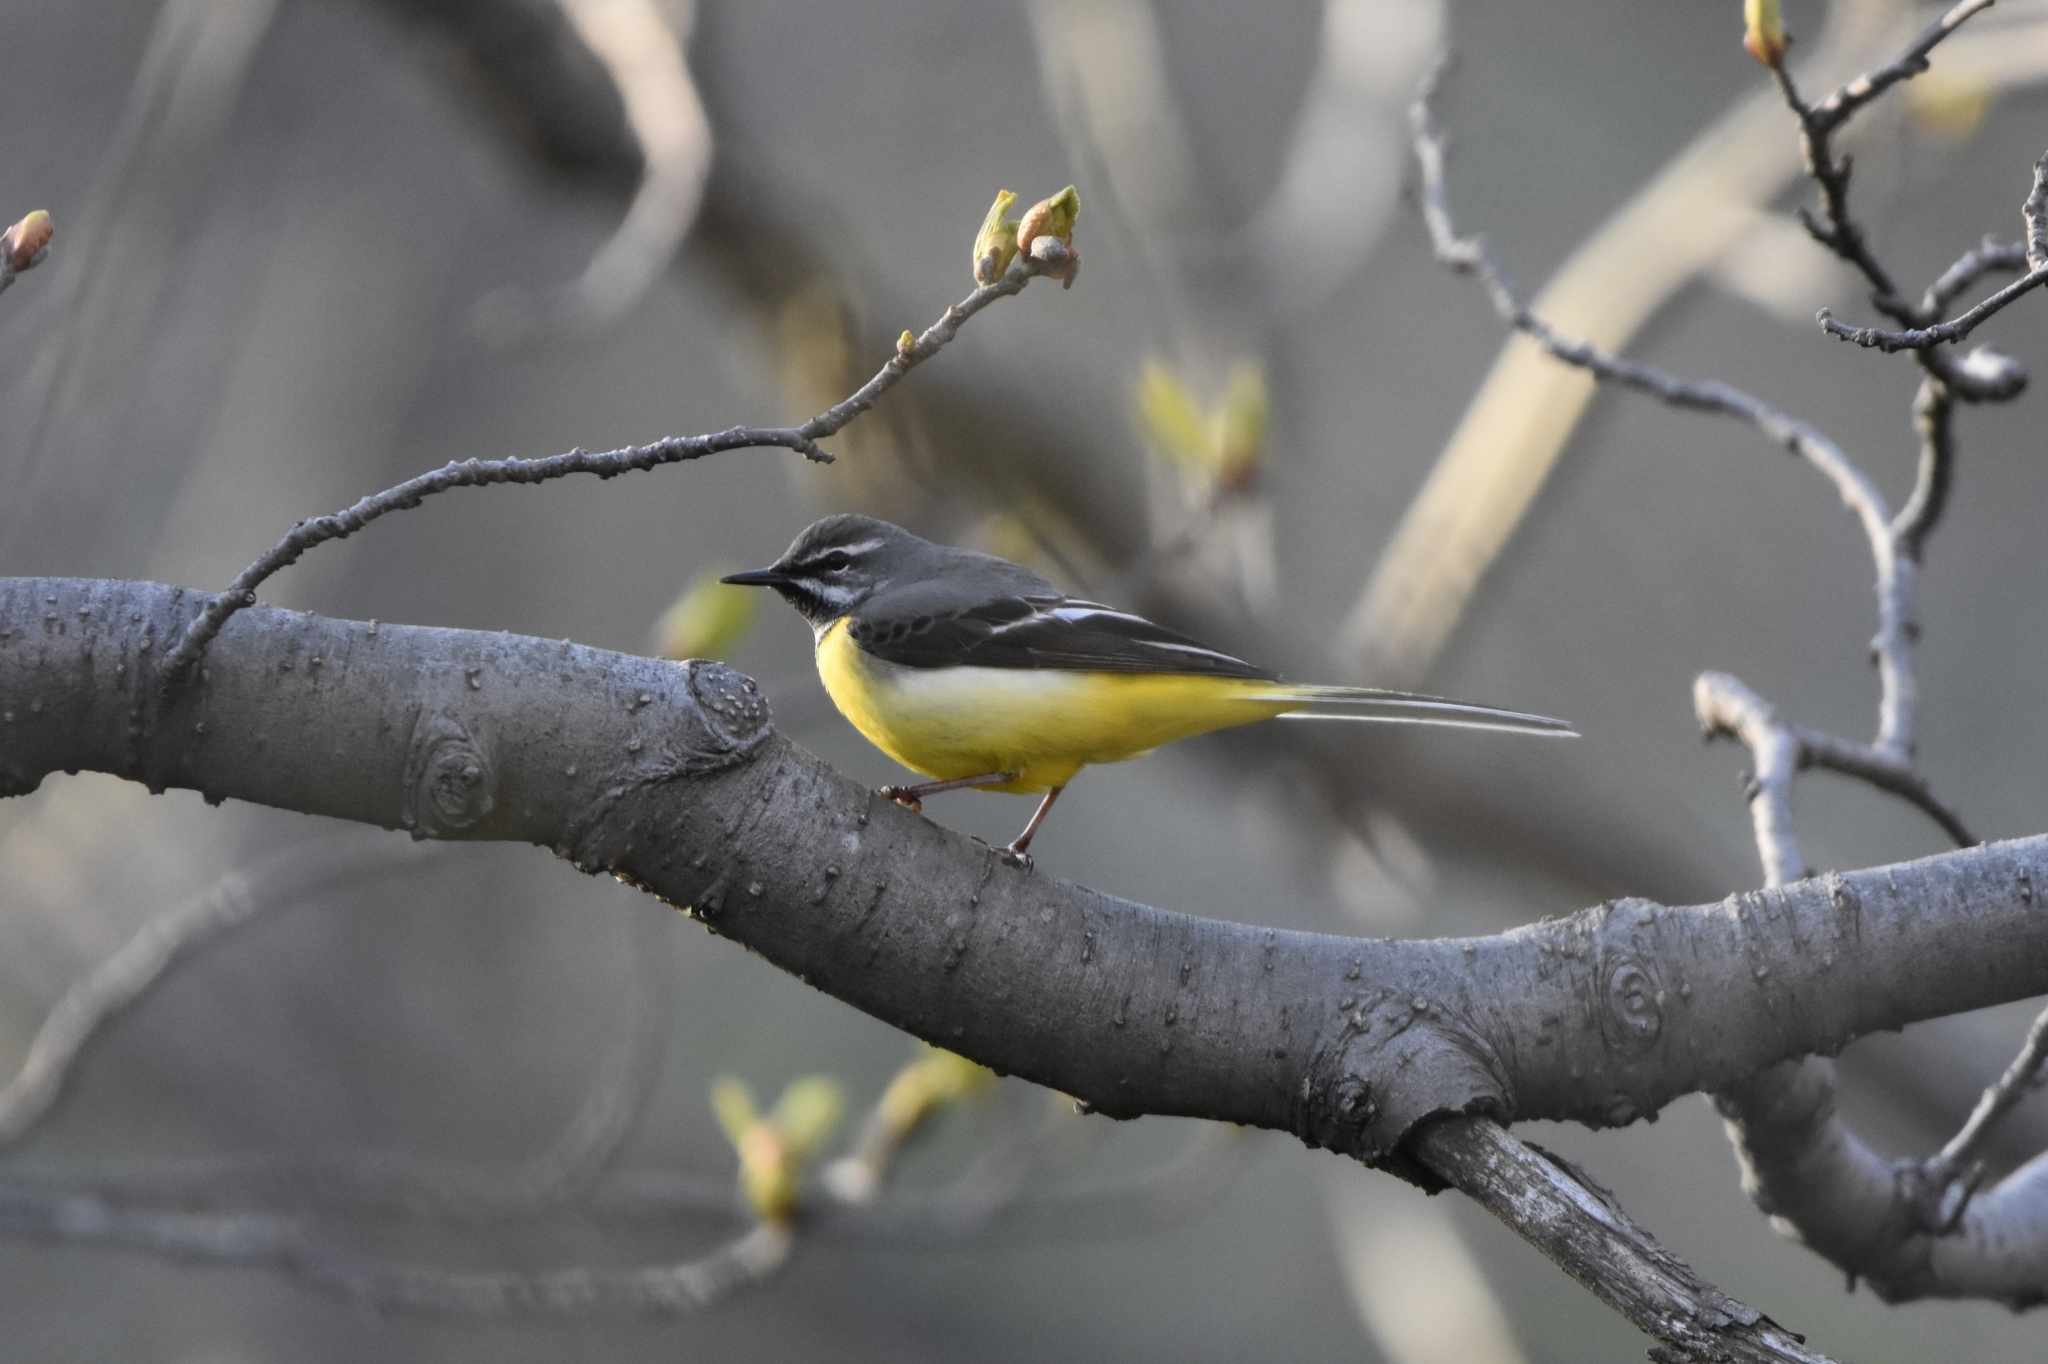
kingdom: Animalia
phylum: Chordata
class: Aves
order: Passeriformes
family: Motacillidae
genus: Motacilla
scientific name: Motacilla cinerea
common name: Grey wagtail
